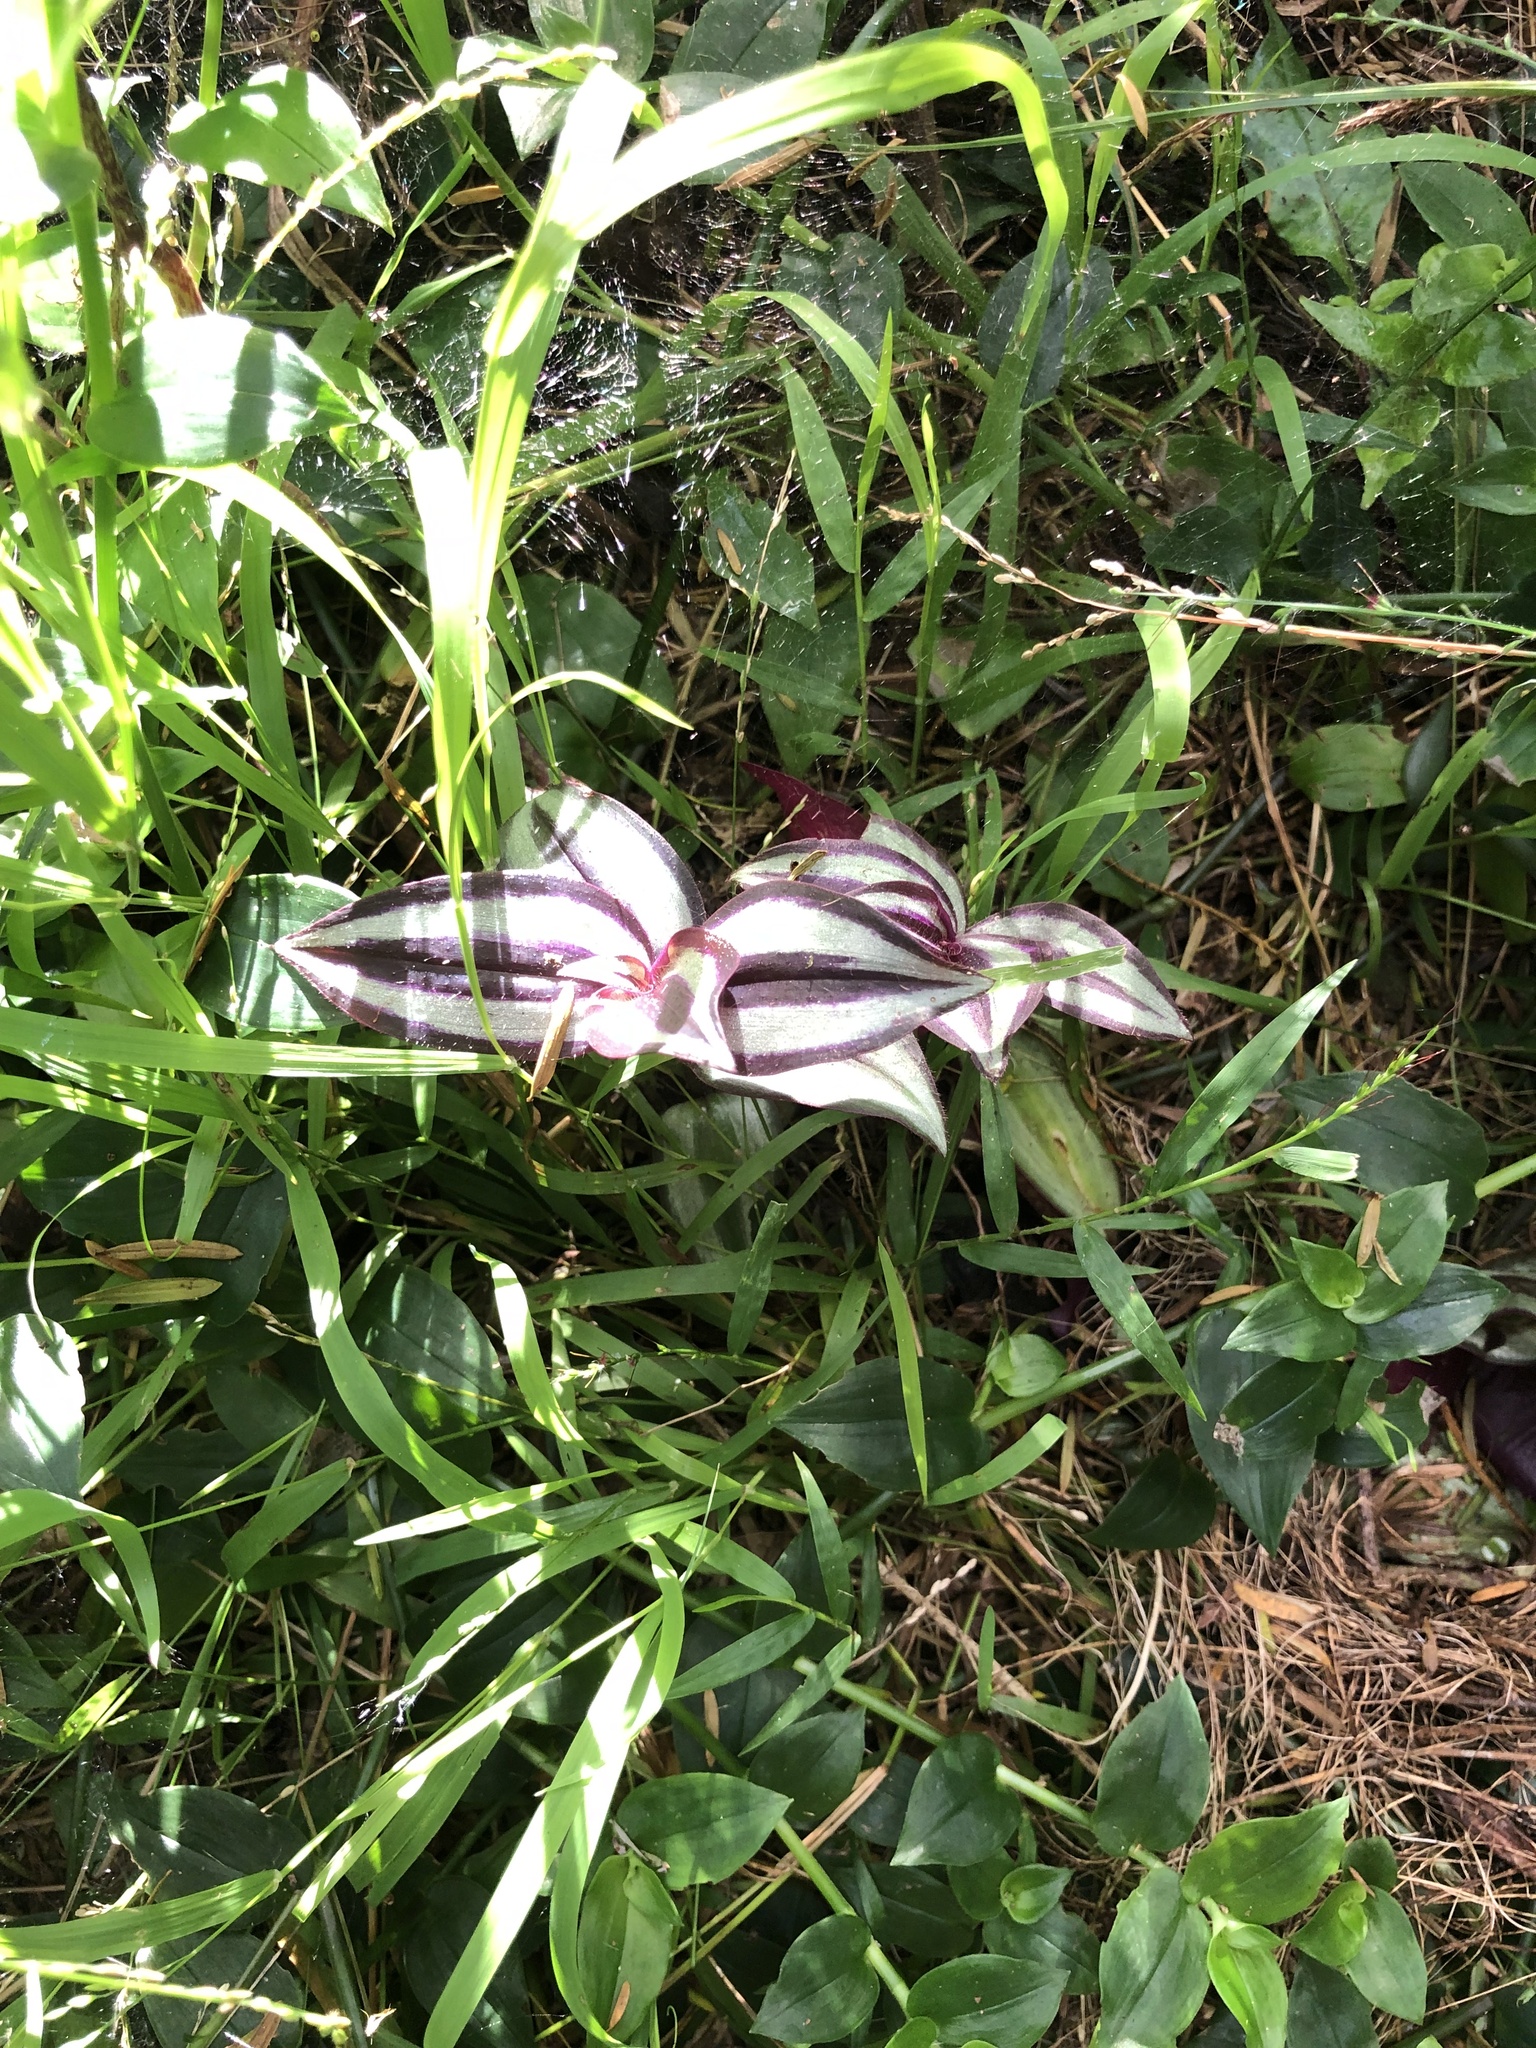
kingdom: Plantae
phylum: Tracheophyta
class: Liliopsida
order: Commelinales
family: Commelinaceae
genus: Tradescantia
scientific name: Tradescantia zebrina
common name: Inchplant
